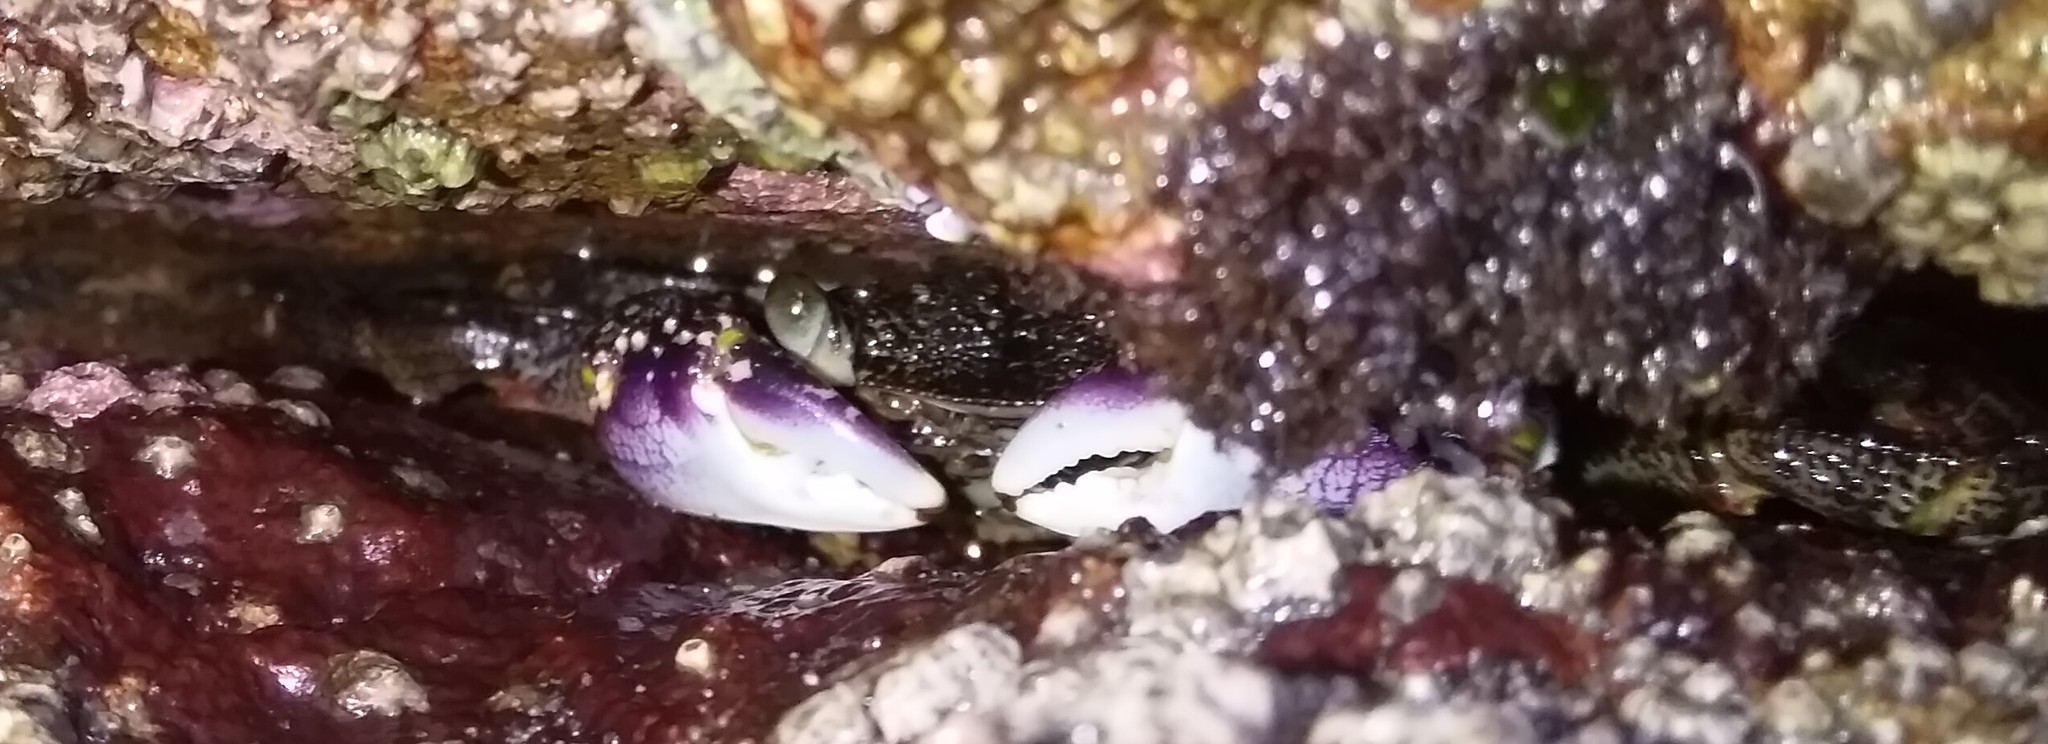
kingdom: Animalia
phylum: Arthropoda
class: Malacostraca
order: Decapoda
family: Grapsidae
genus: Leptograpsus
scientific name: Leptograpsus variegatus
